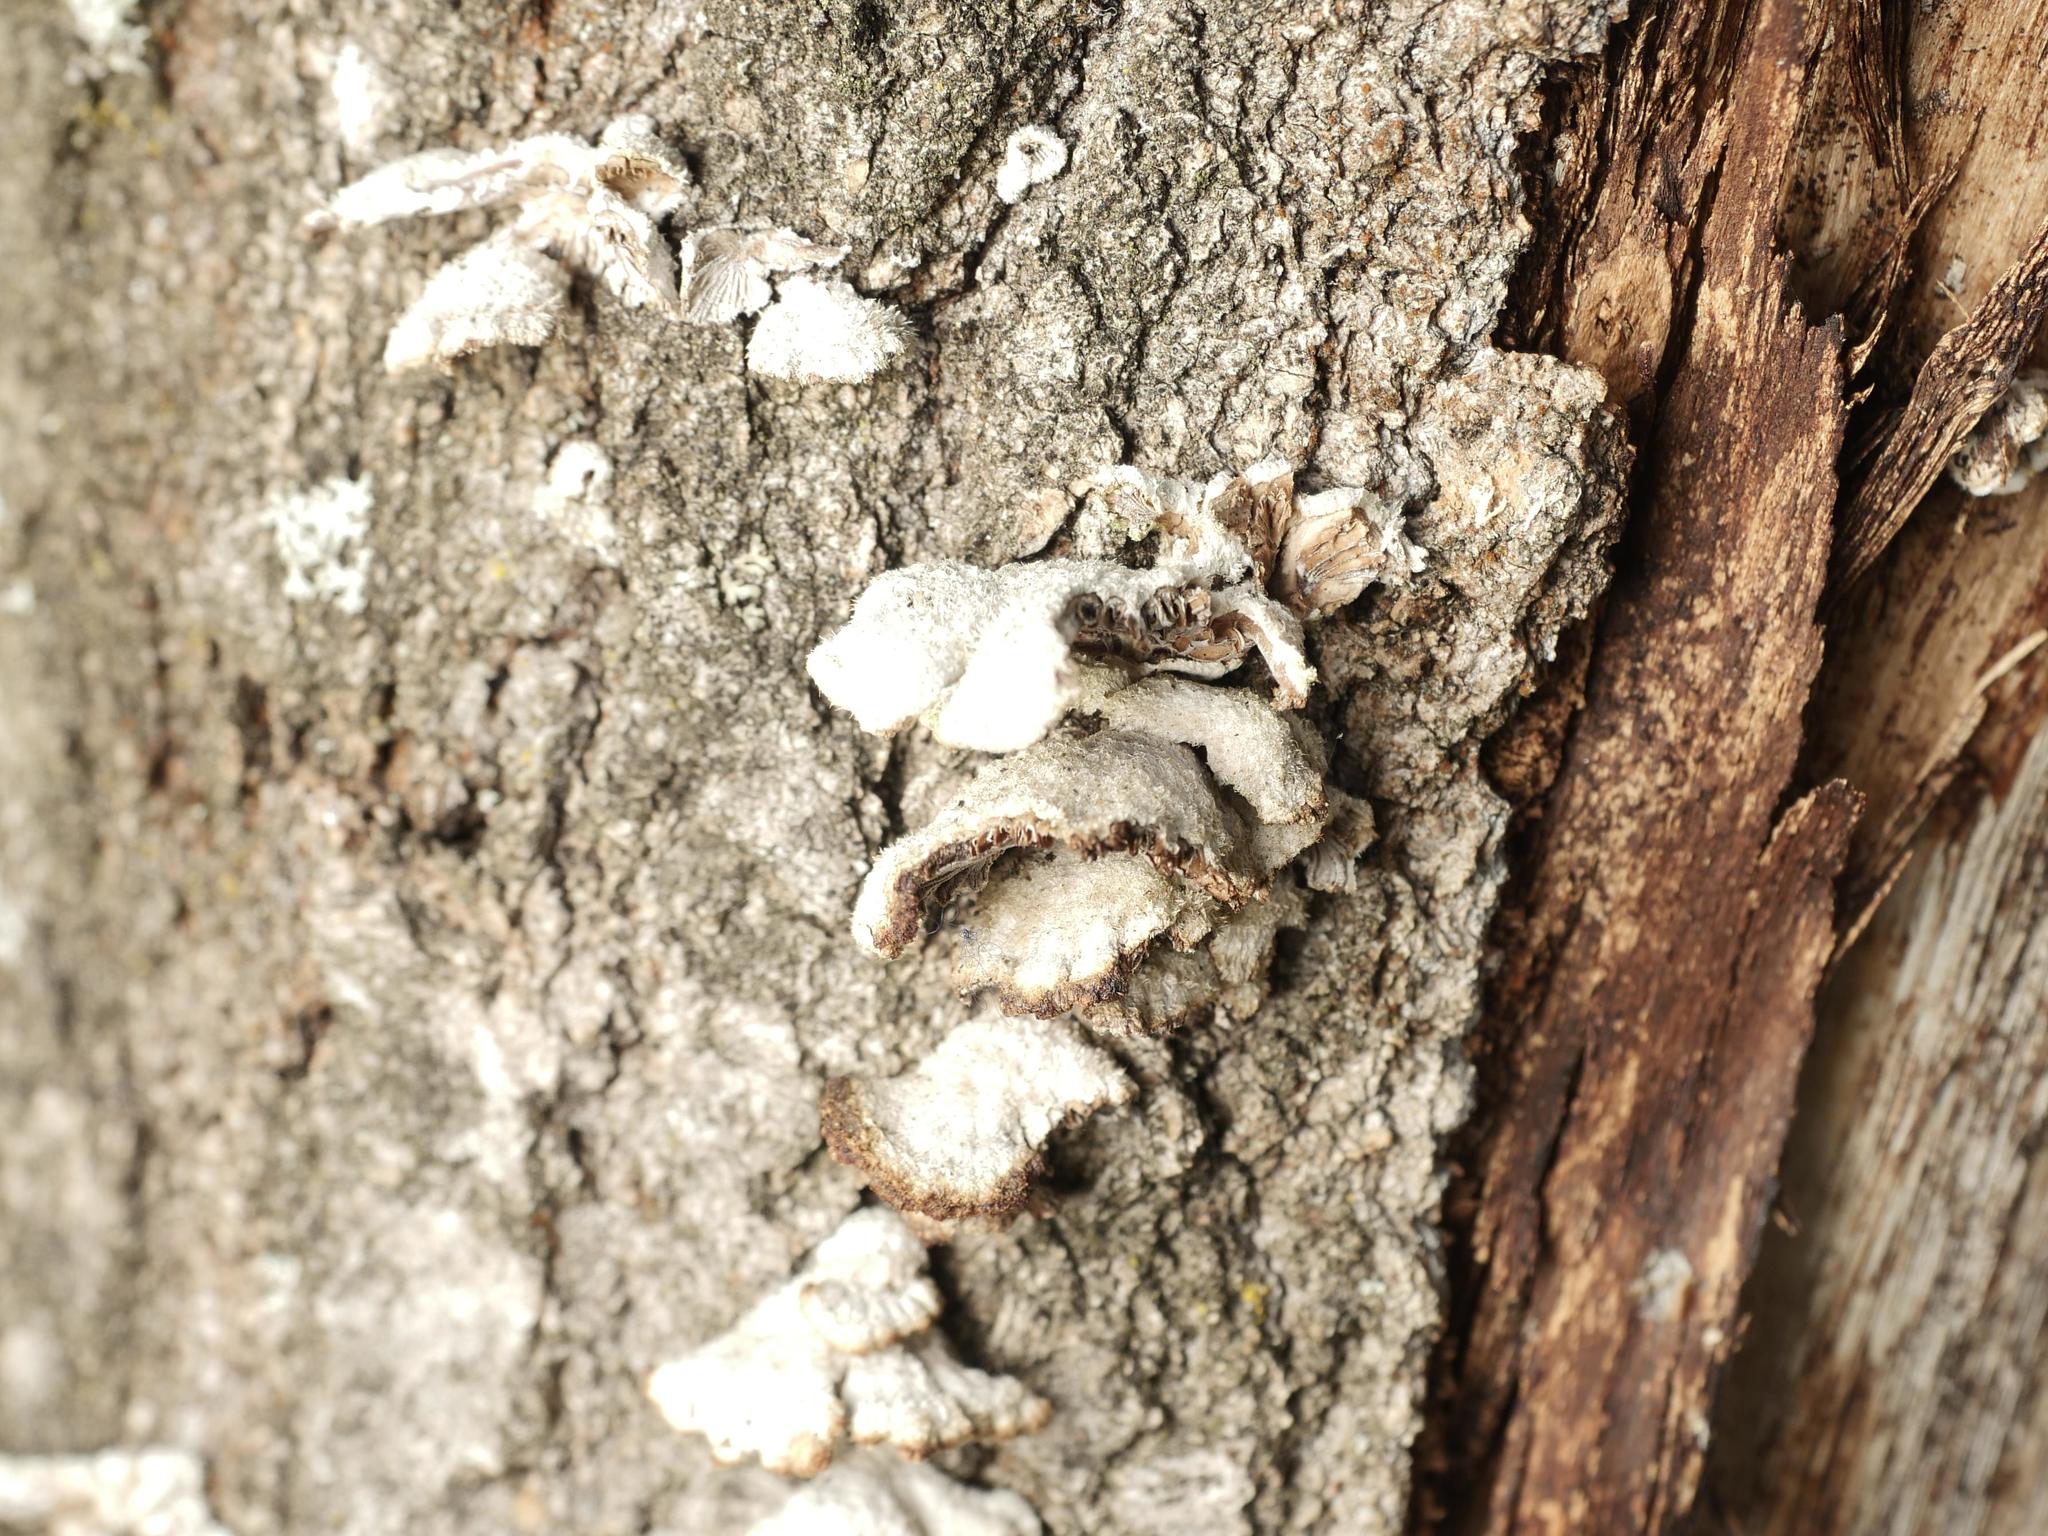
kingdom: Fungi
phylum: Basidiomycota
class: Agaricomycetes
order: Agaricales
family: Schizophyllaceae
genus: Schizophyllum
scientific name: Schizophyllum commune
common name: Common porecrust
